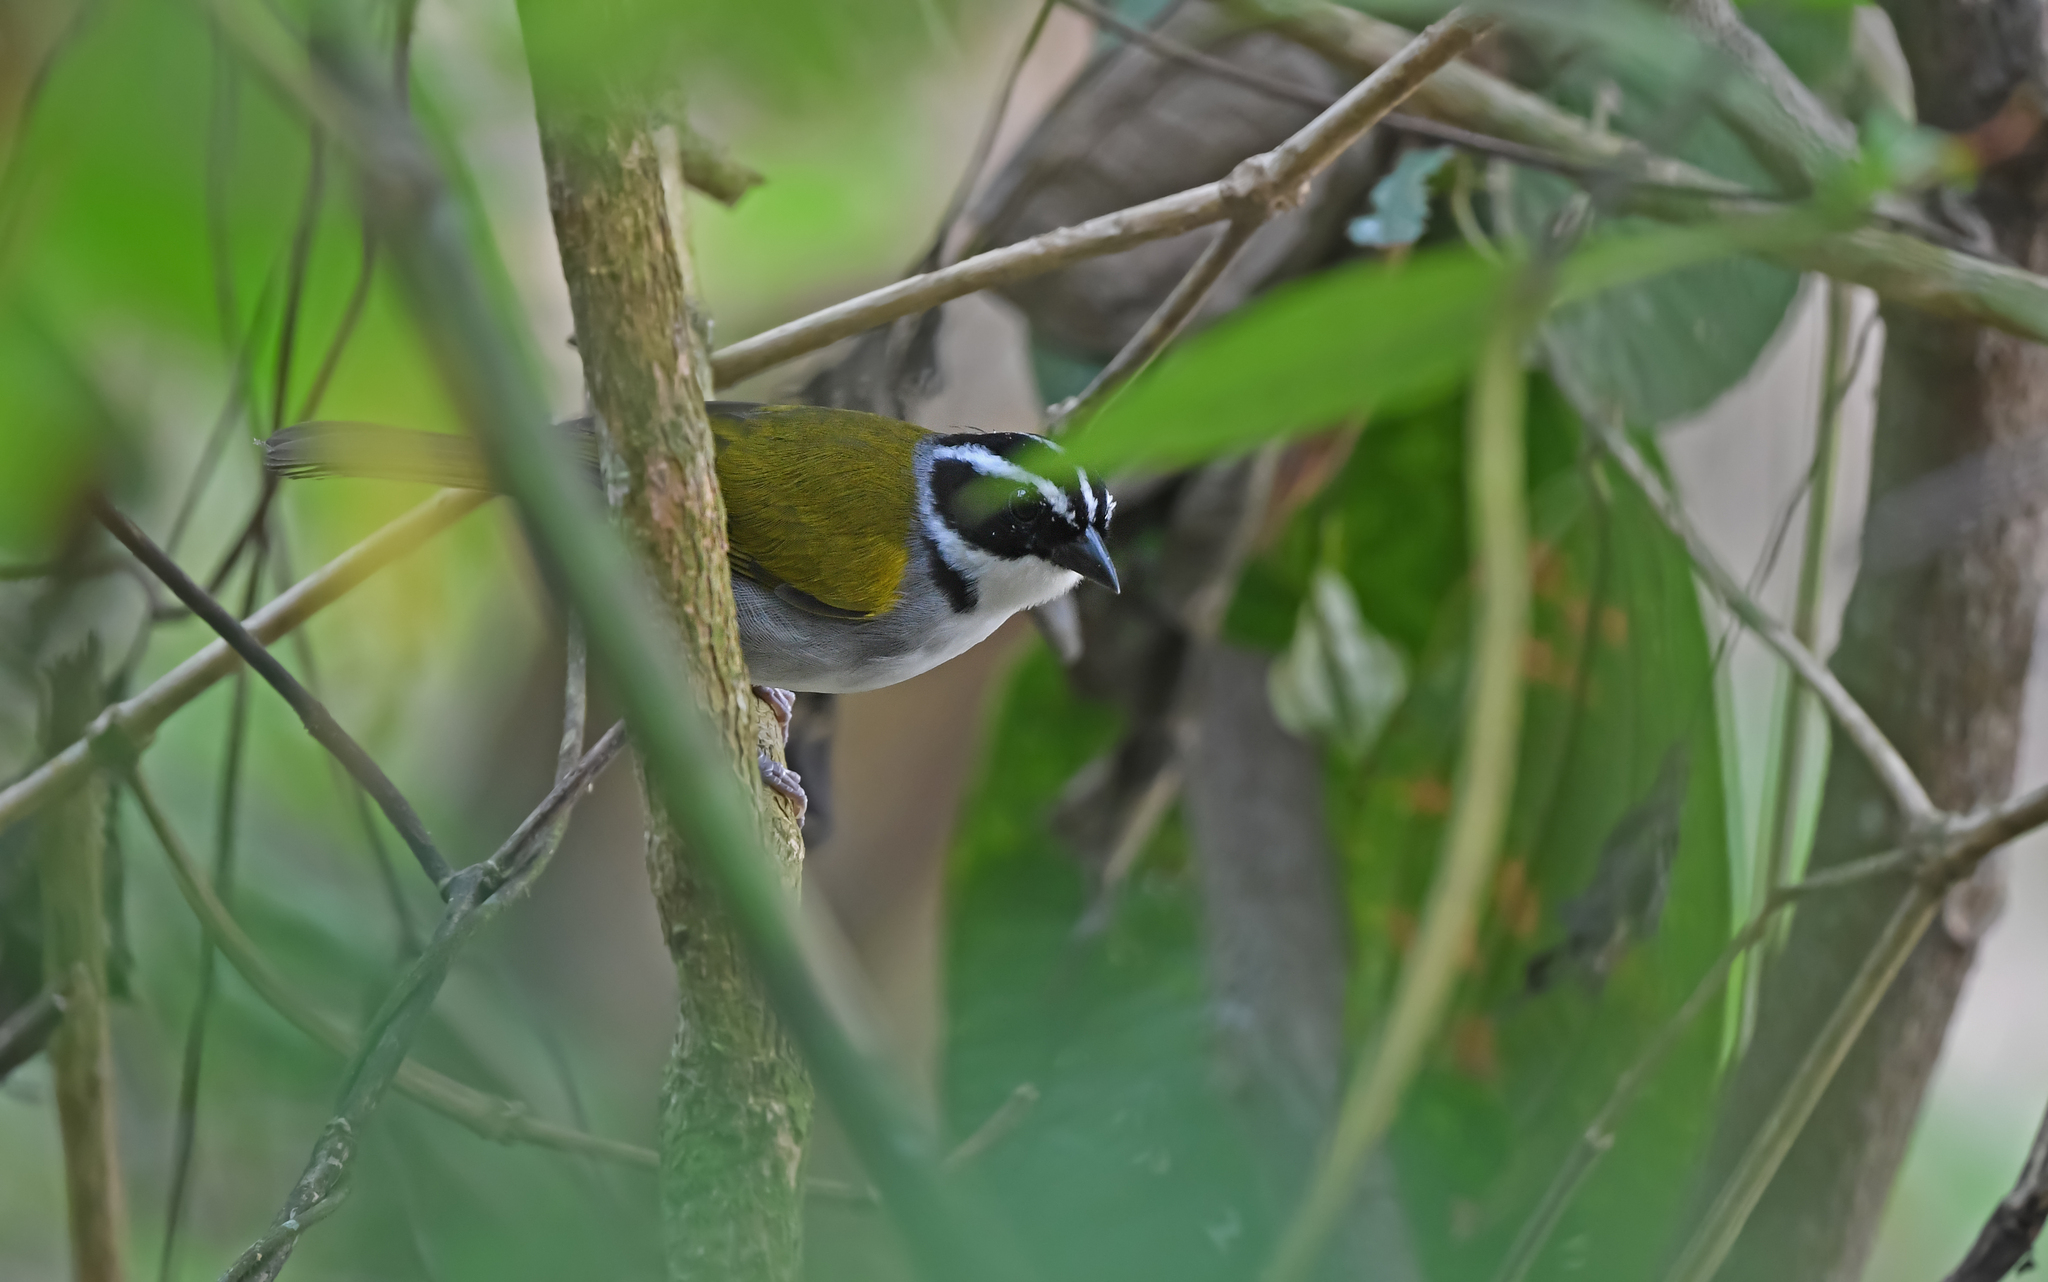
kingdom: Animalia
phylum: Chordata
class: Aves
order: Passeriformes
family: Passerellidae
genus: Arremon
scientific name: Arremon taciturnus
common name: Pectoral sparrow
